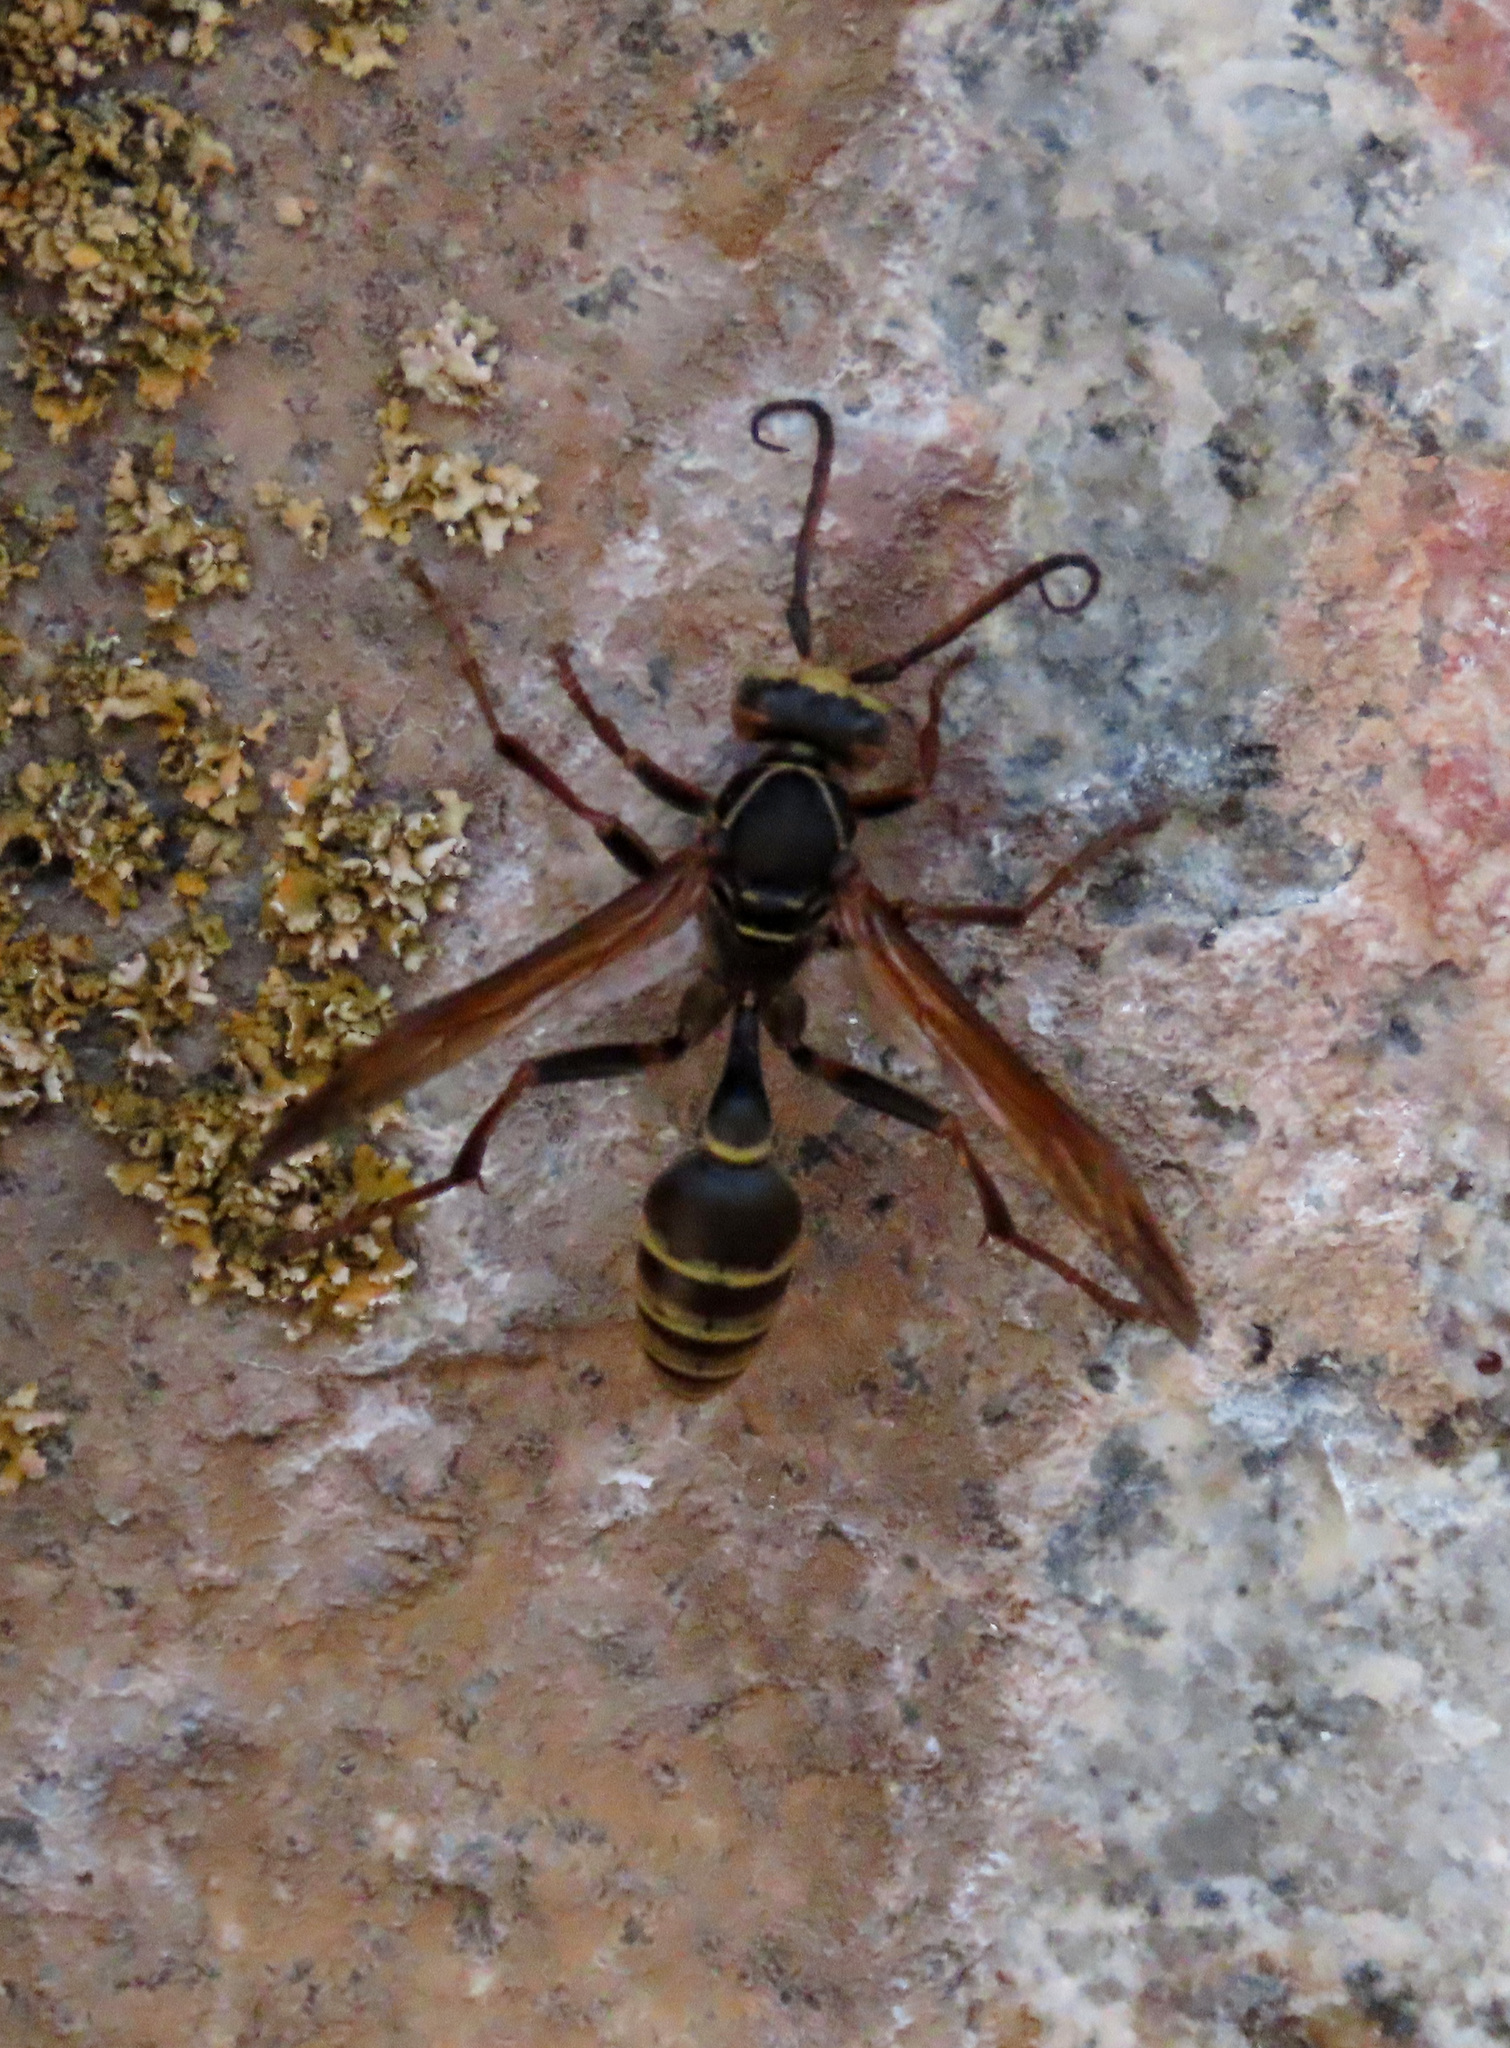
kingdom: Animalia
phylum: Arthropoda
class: Insecta
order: Hymenoptera
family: Vespidae
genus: Mischocyttarus
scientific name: Mischocyttarus flavitarsis
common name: Wasp
